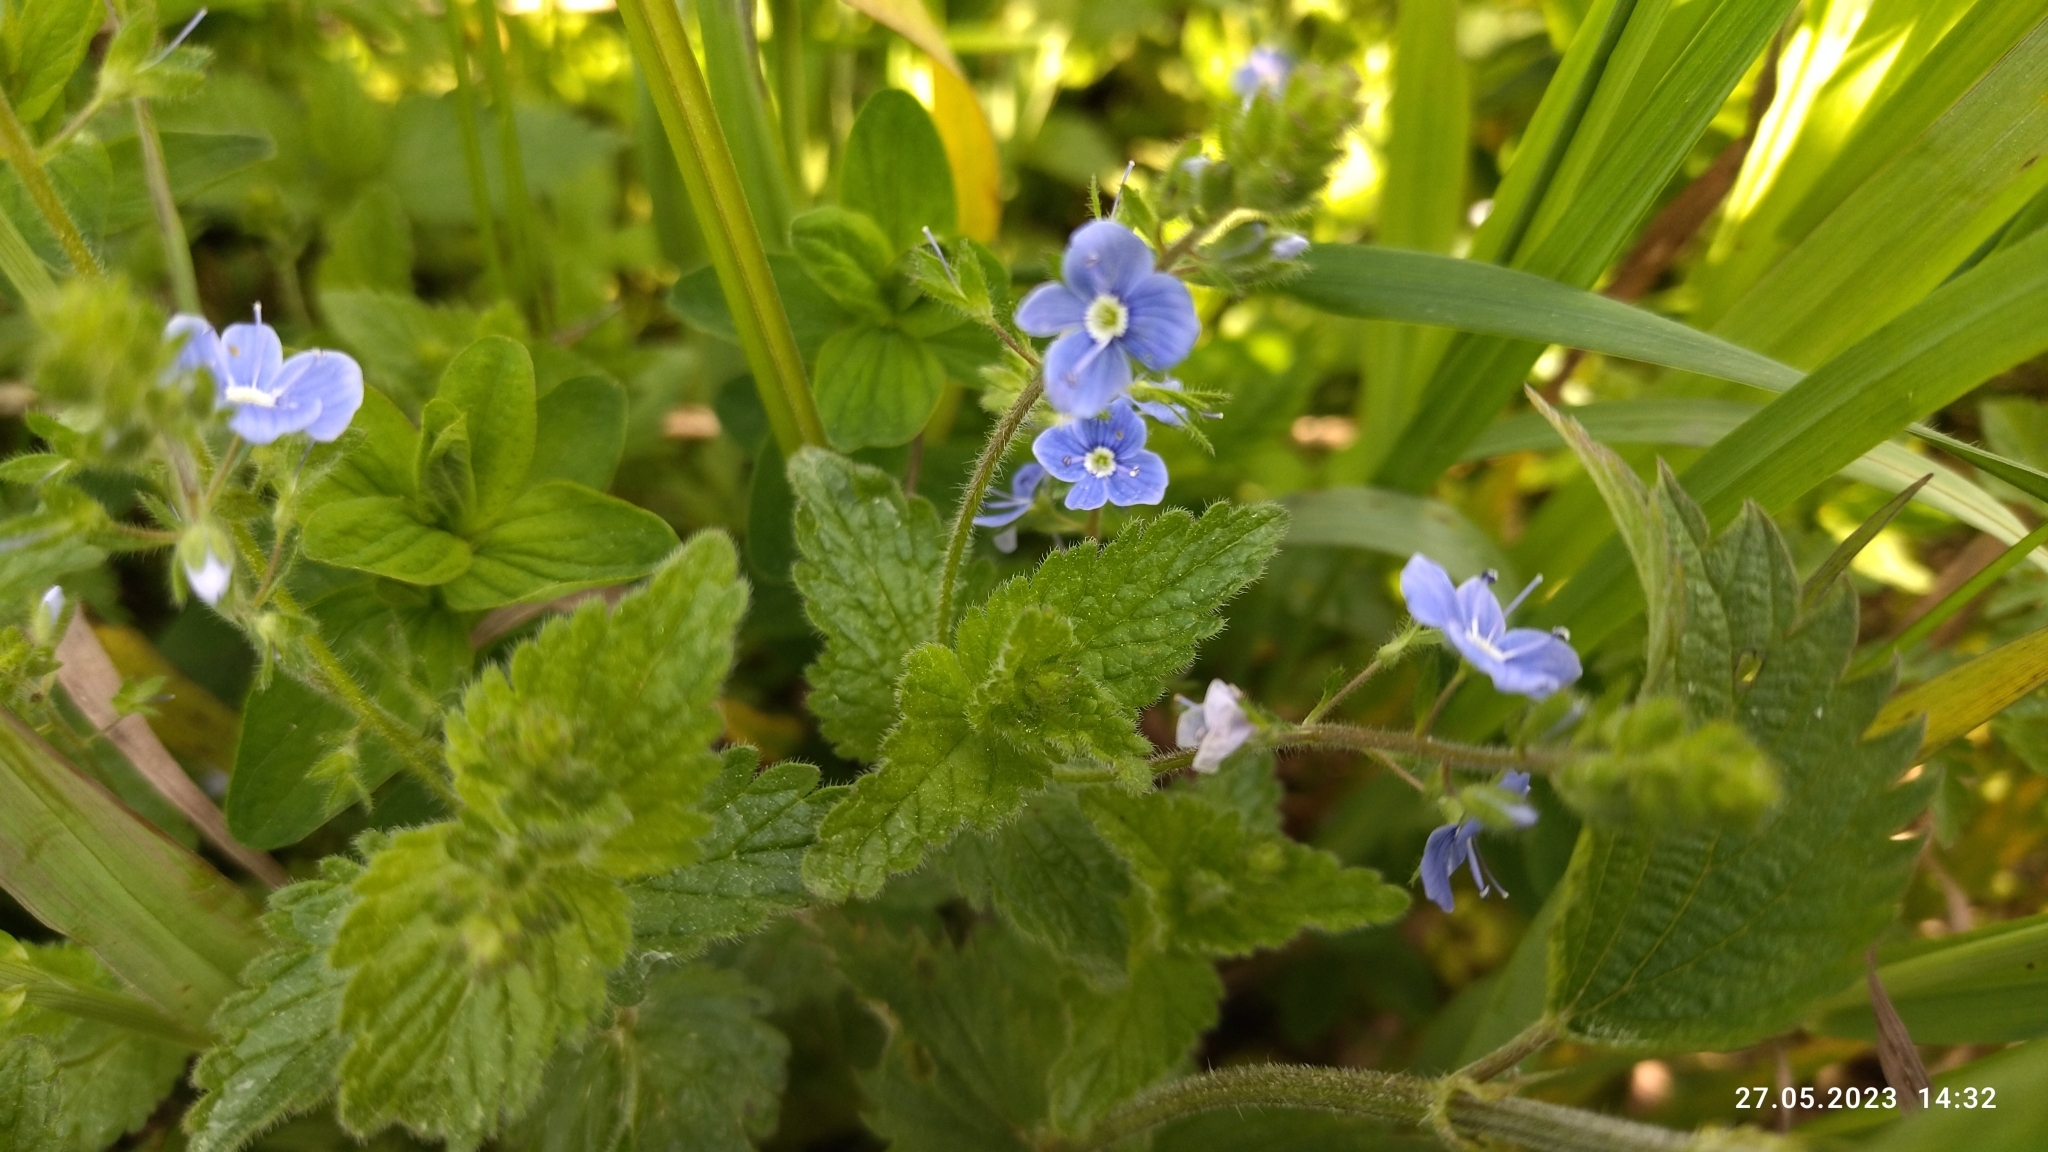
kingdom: Plantae
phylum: Tracheophyta
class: Magnoliopsida
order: Lamiales
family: Plantaginaceae
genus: Veronica
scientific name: Veronica chamaedrys
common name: Germander speedwell
